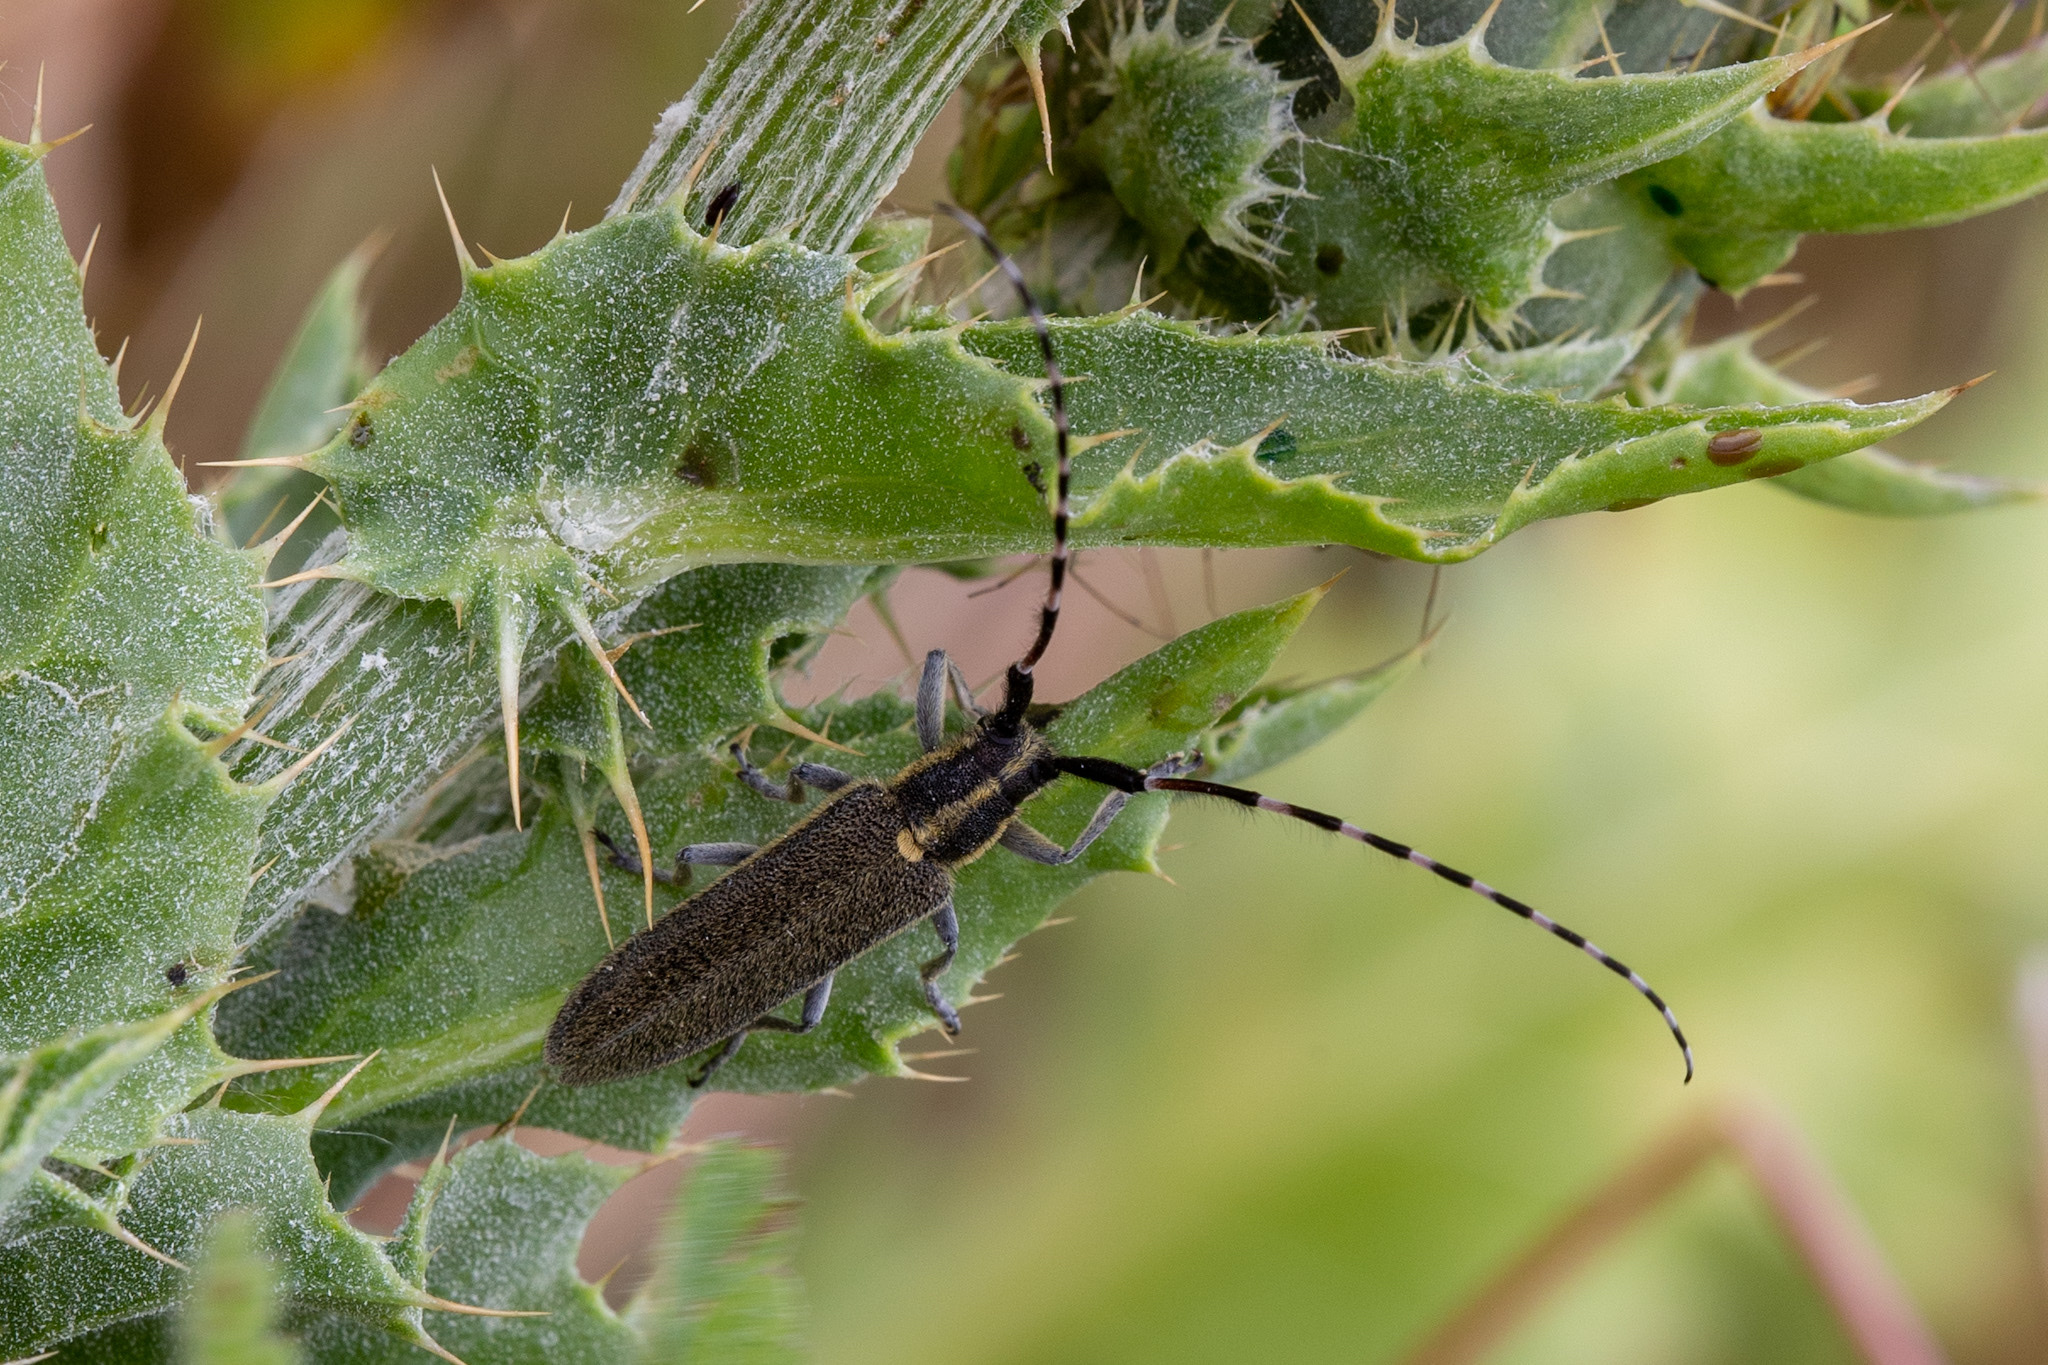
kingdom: Animalia
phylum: Arthropoda
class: Insecta
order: Coleoptera
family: Cerambycidae
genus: Agapanthia
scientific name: Agapanthia cynarae
